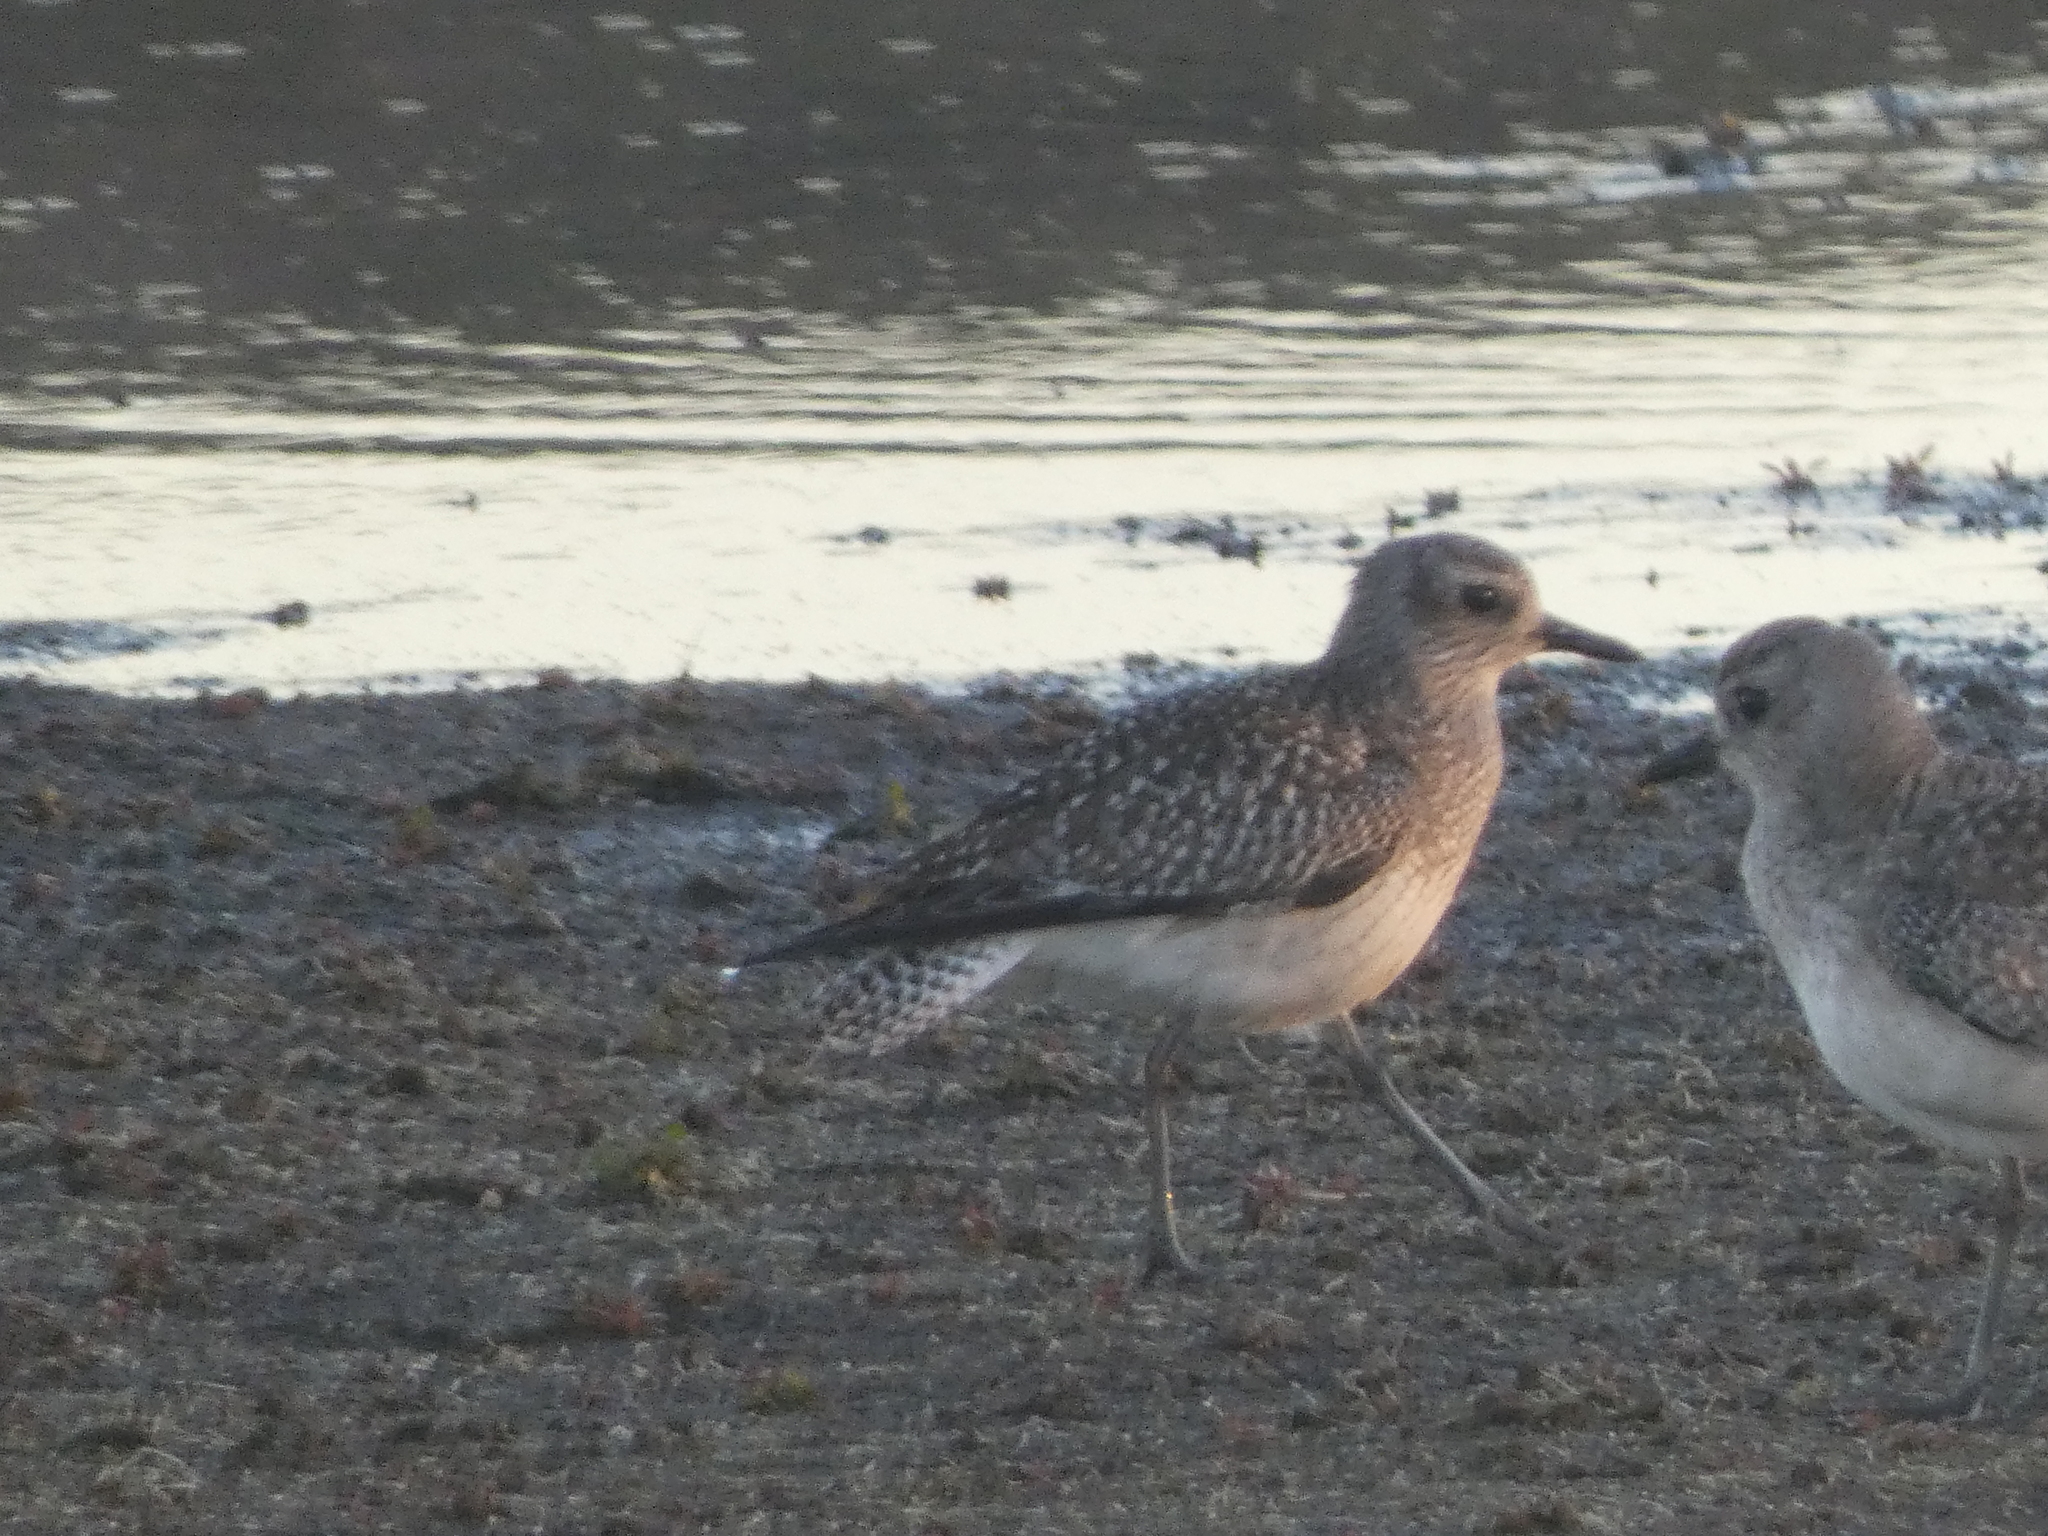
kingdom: Animalia
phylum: Chordata
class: Aves
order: Charadriiformes
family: Charadriidae
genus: Pluvialis
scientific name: Pluvialis squatarola
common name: Grey plover
